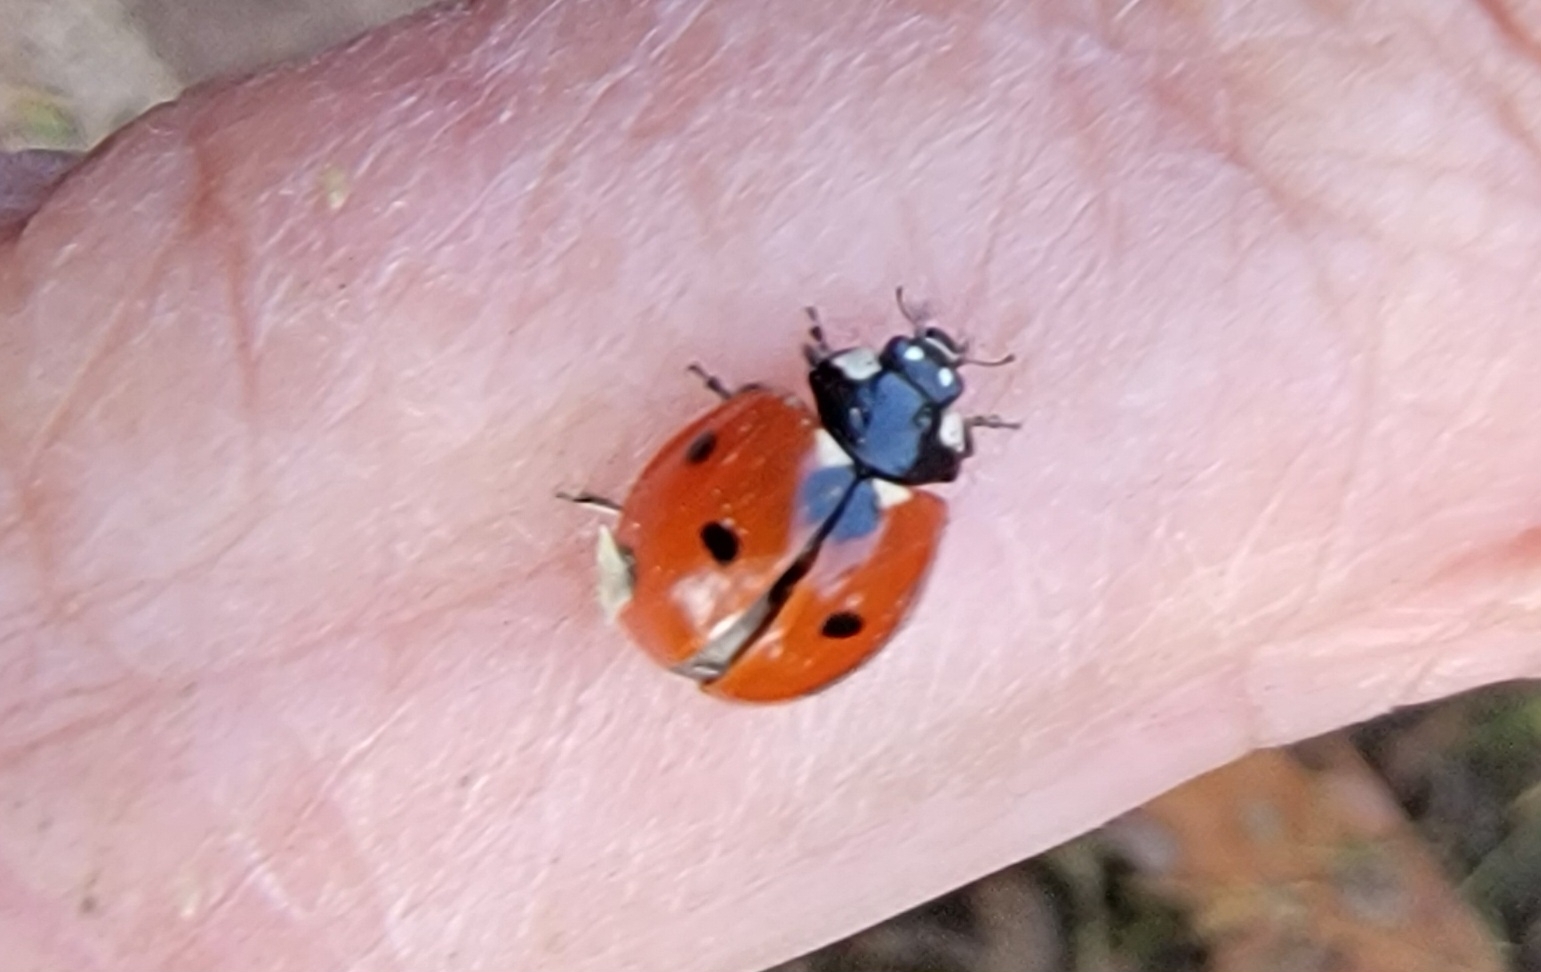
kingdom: Animalia
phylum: Arthropoda
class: Insecta
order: Coleoptera
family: Coccinellidae
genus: Coccinella
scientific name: Coccinella septempunctata
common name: Sevenspotted lady beetle
